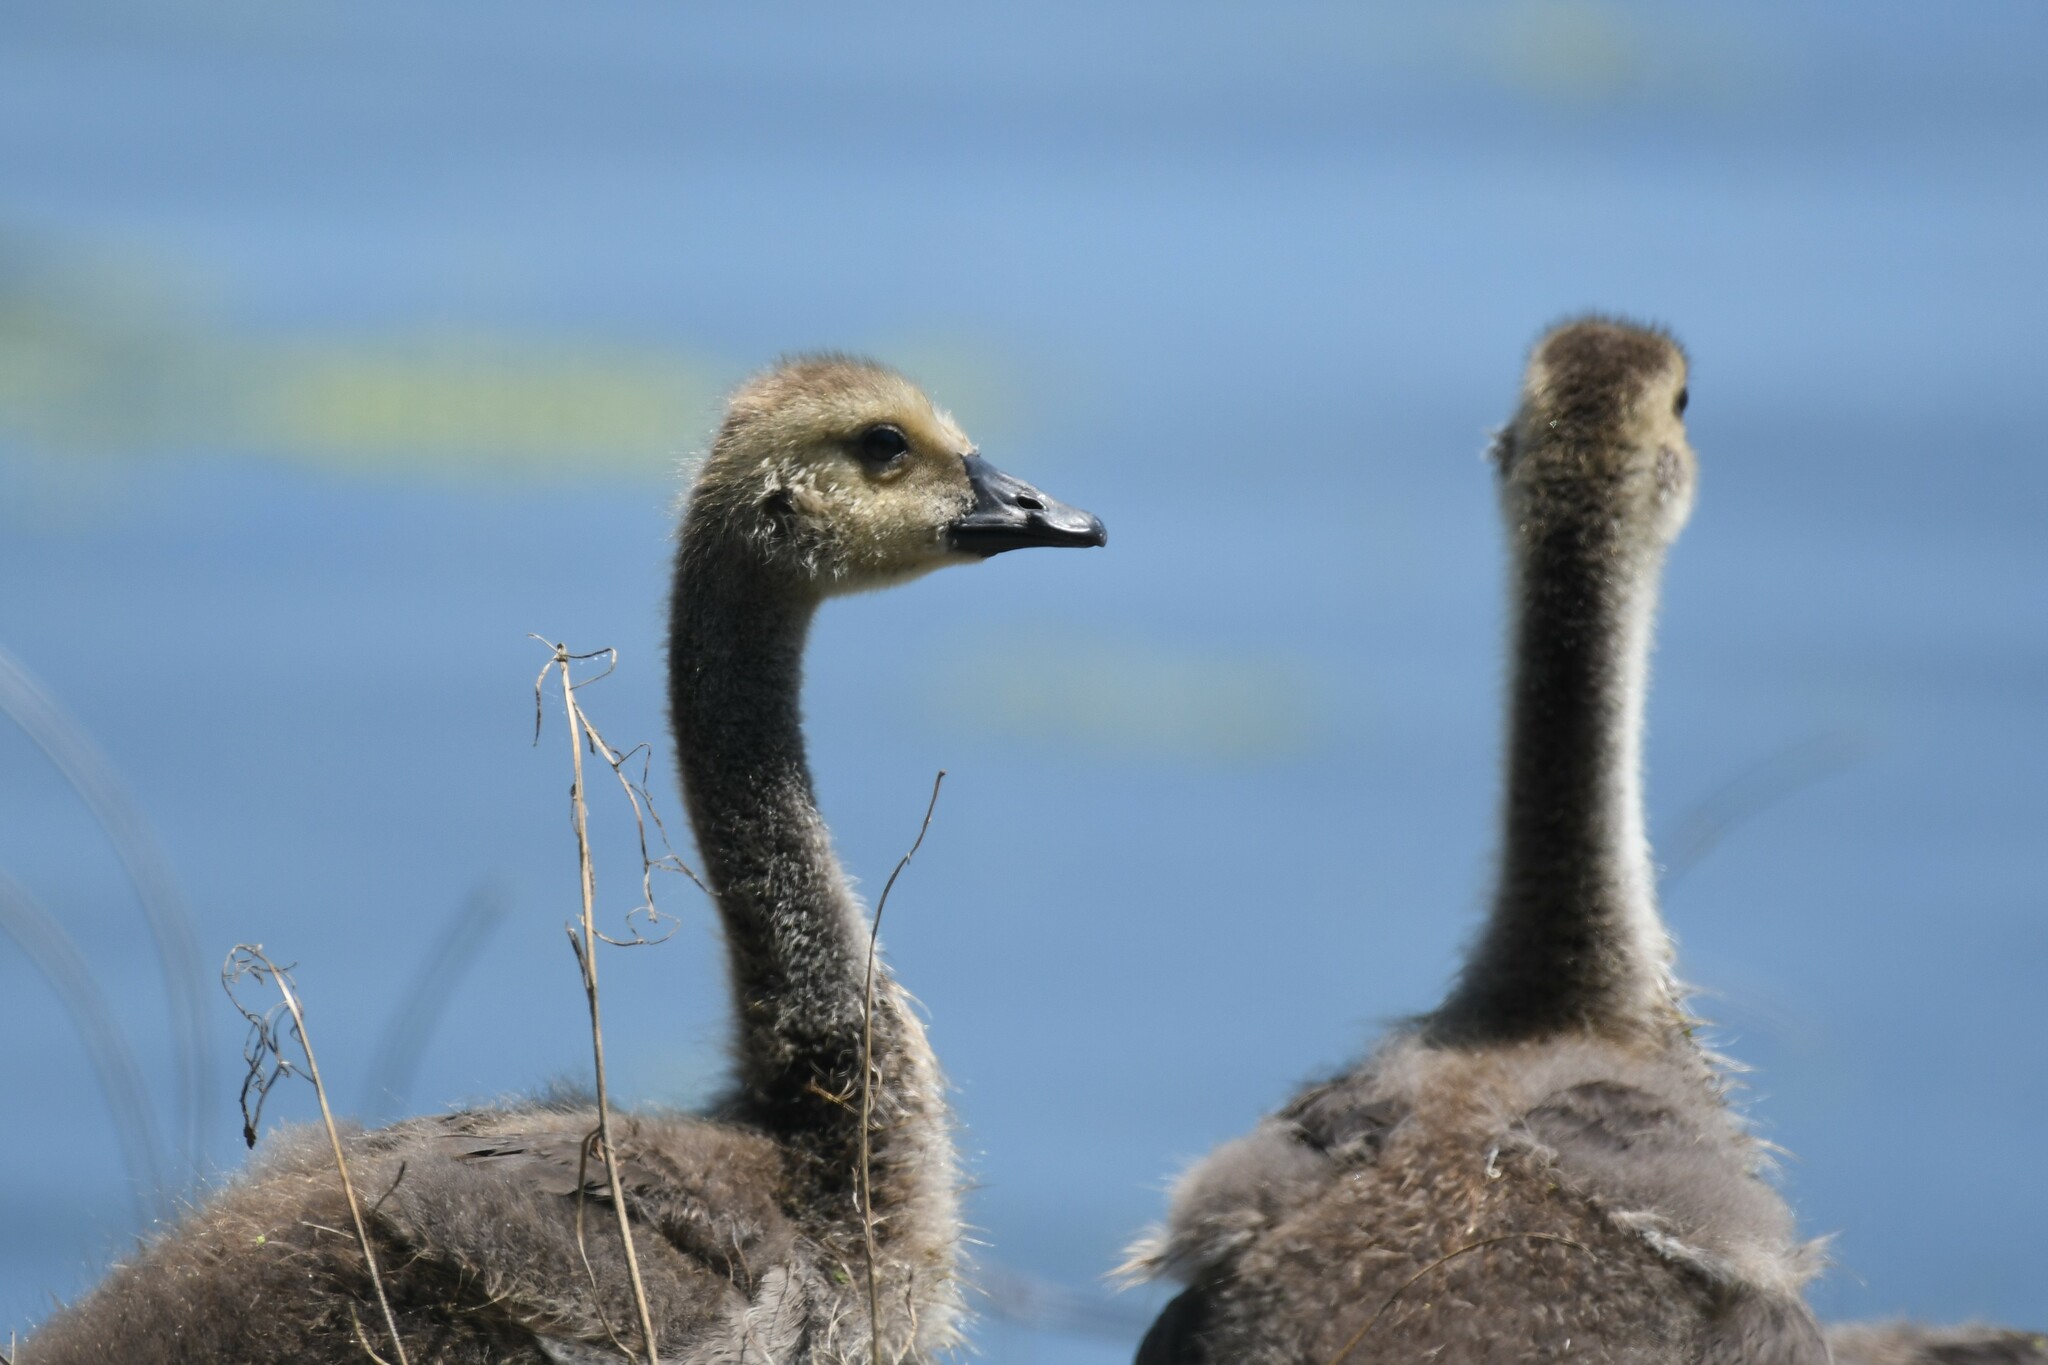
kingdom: Animalia
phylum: Chordata
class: Aves
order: Anseriformes
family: Anatidae
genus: Branta
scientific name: Branta canadensis
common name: Canada goose
